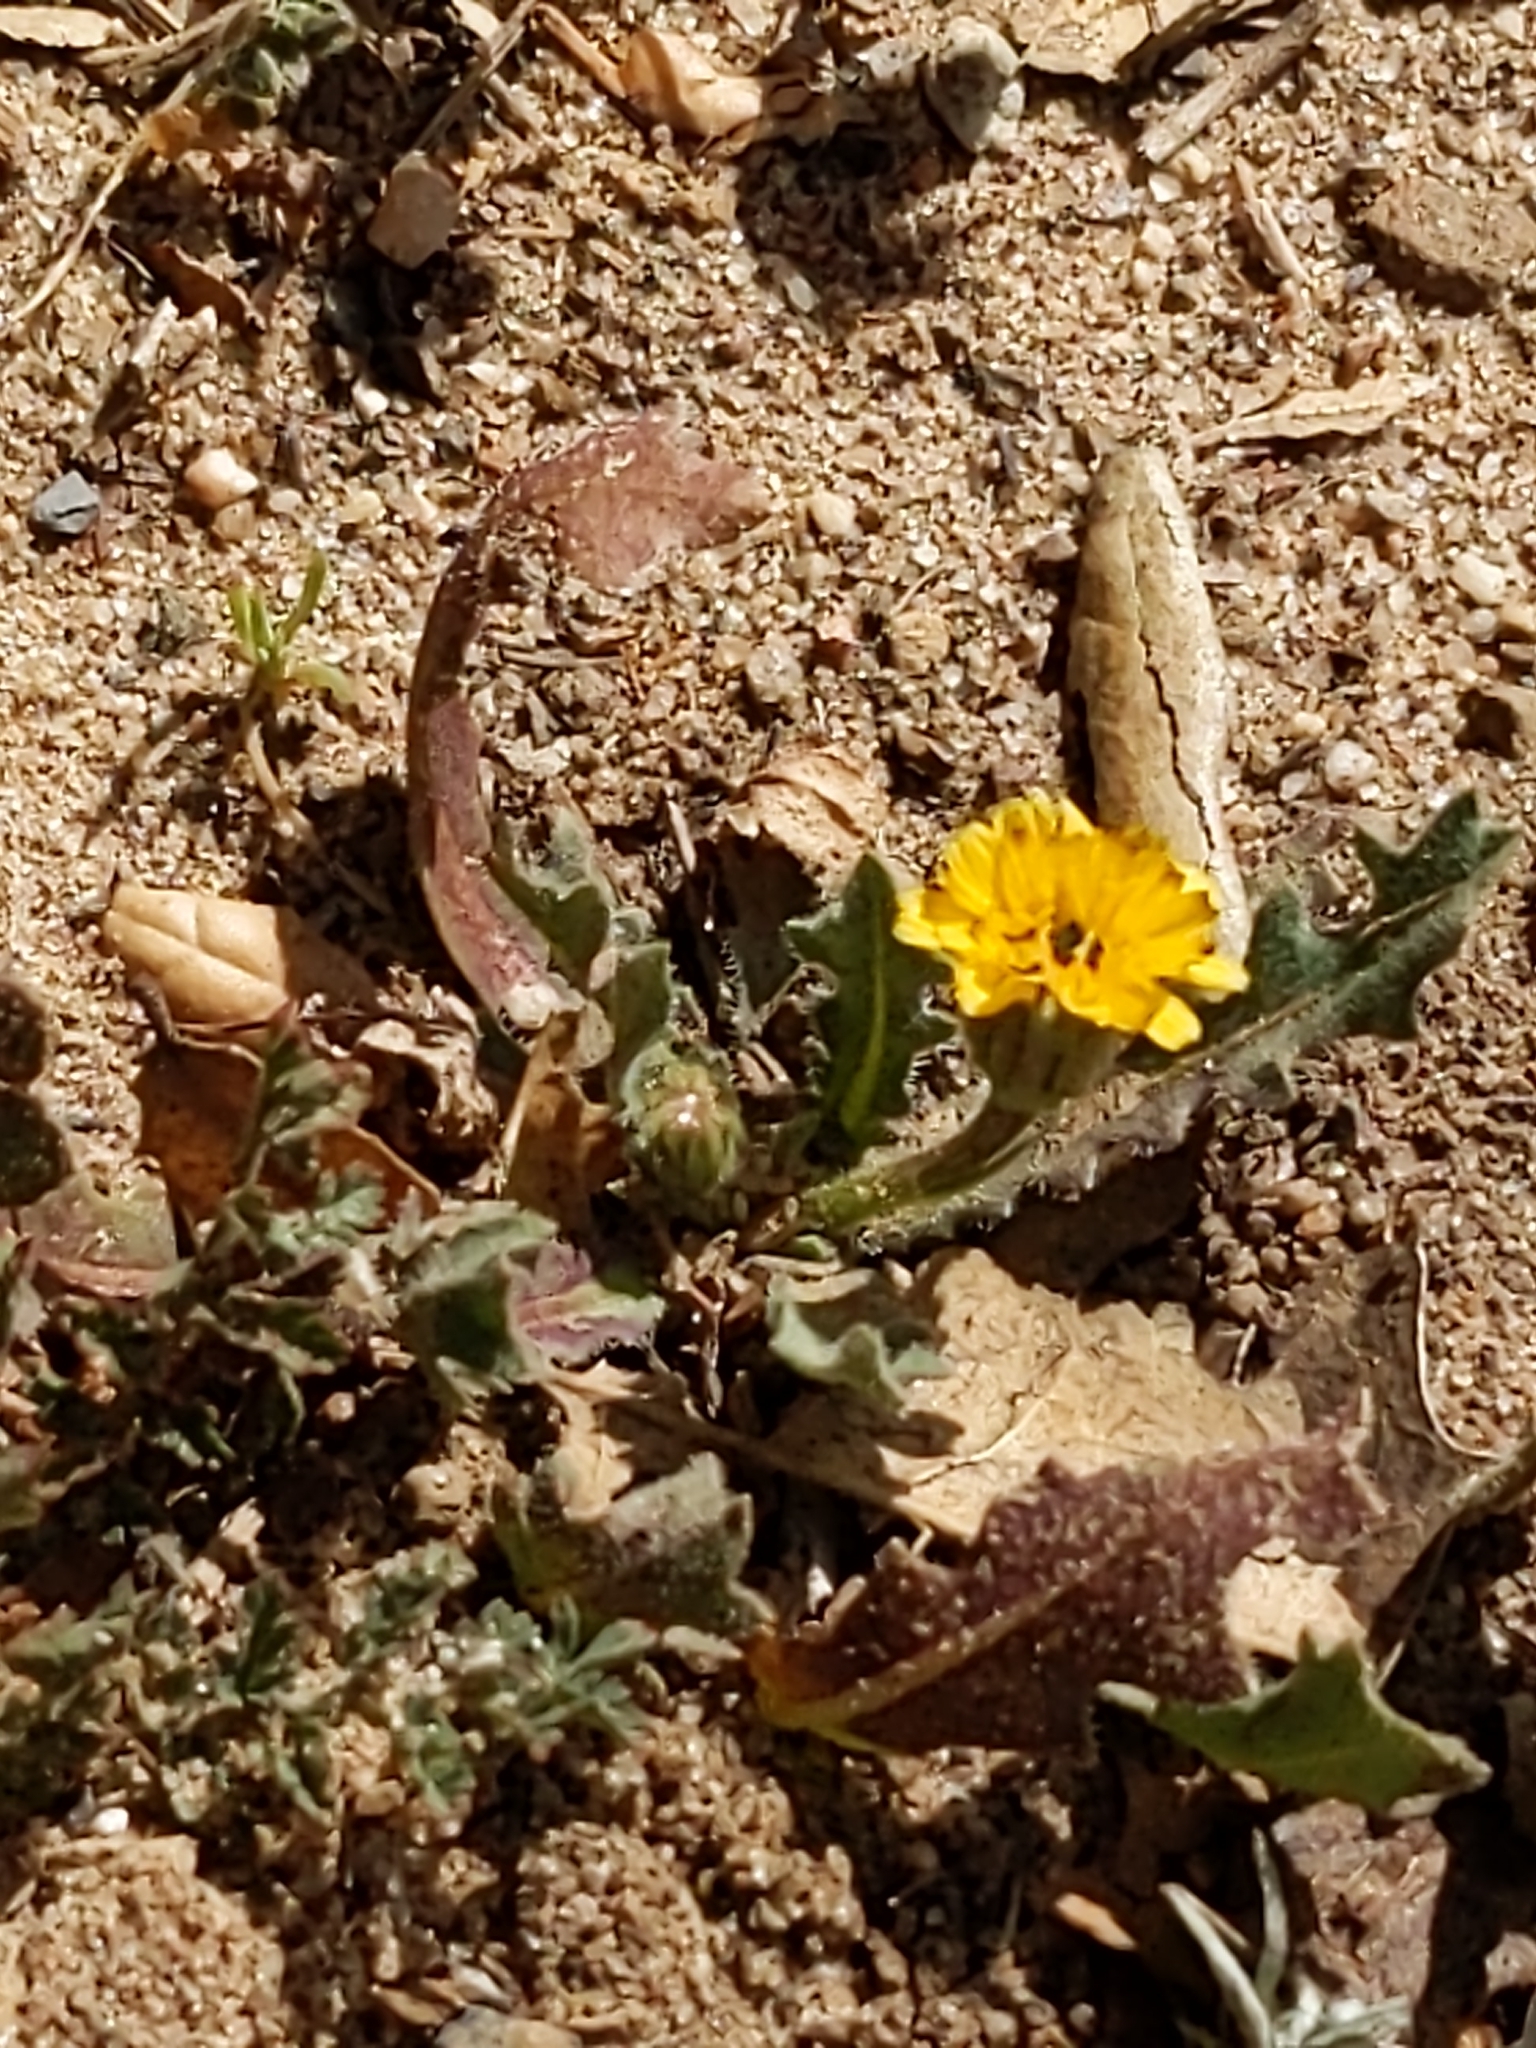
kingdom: Plantae
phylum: Tracheophyta
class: Magnoliopsida
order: Asterales
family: Asteraceae
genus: Hedypnois
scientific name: Hedypnois rhagadioloides
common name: Cretan weed
